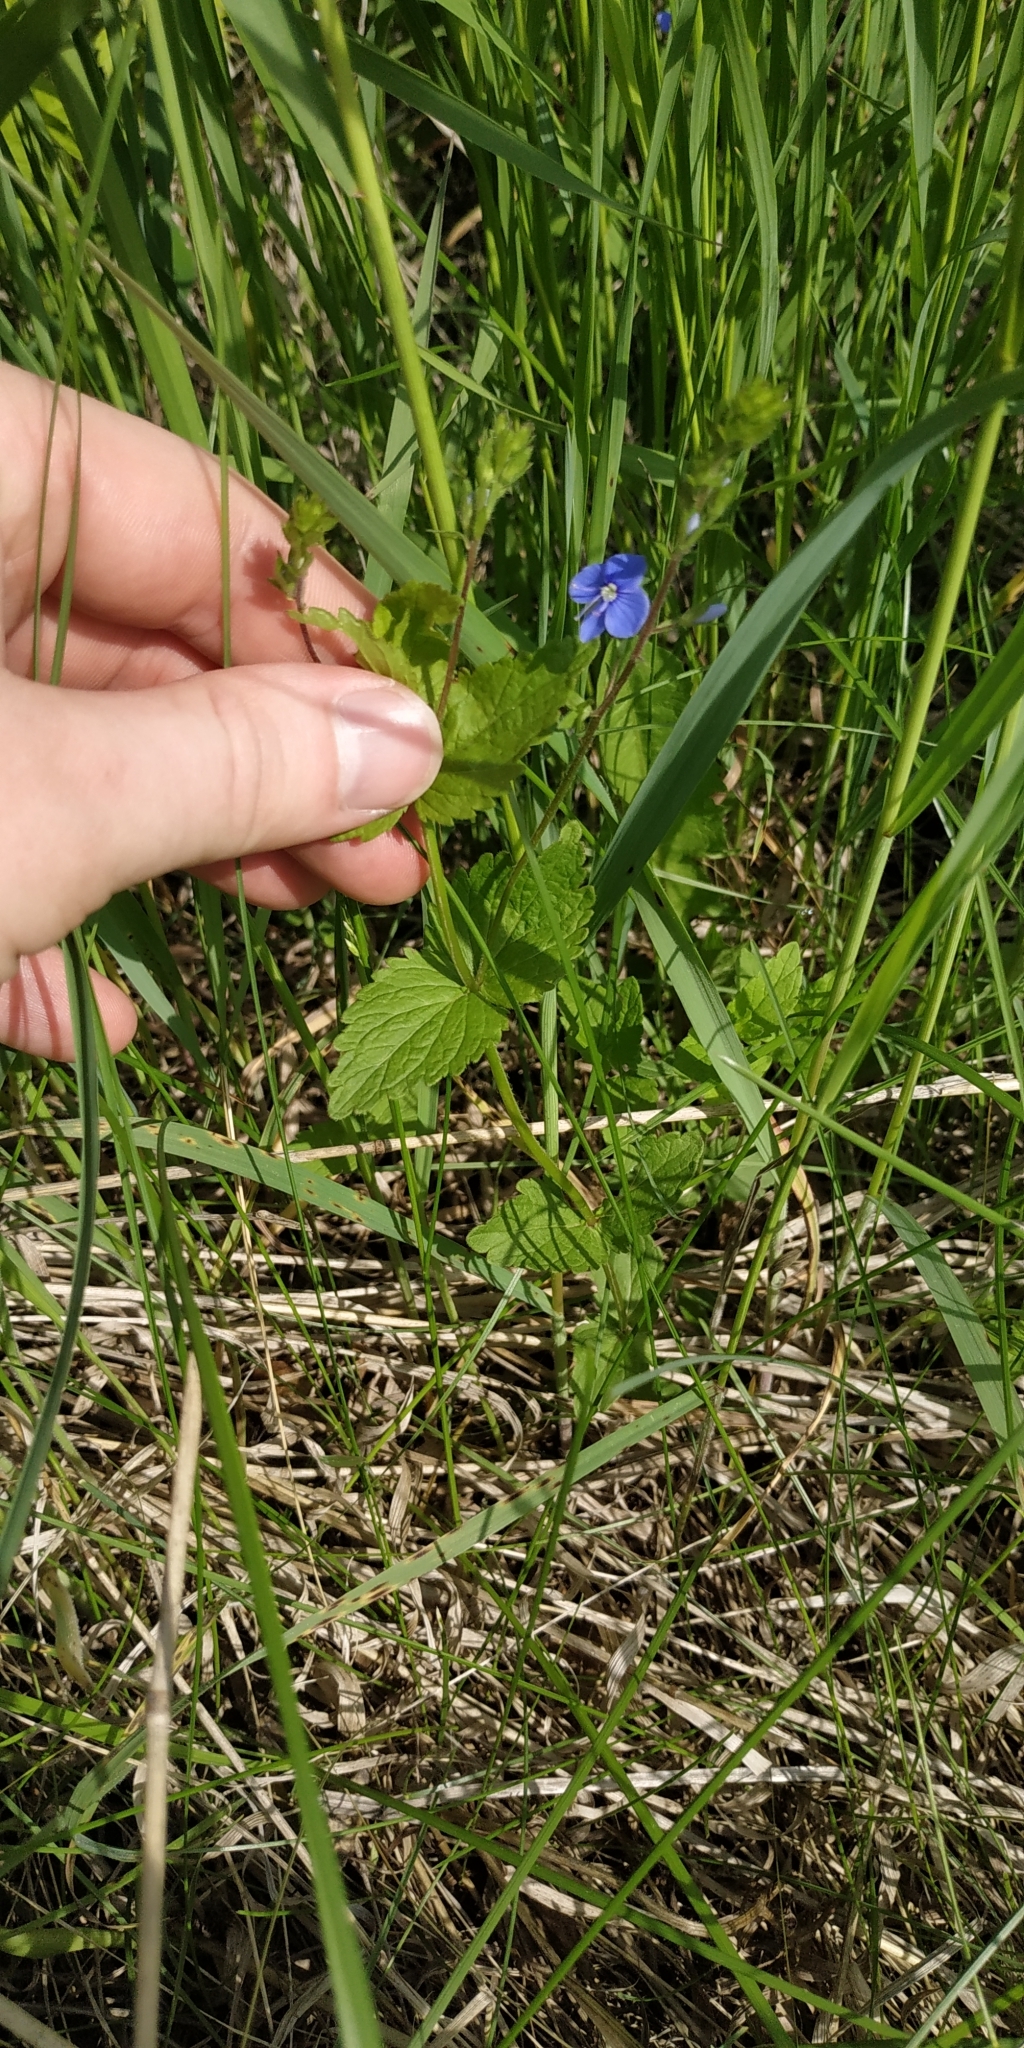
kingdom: Plantae
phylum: Tracheophyta
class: Magnoliopsida
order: Lamiales
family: Plantaginaceae
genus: Veronica
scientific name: Veronica chamaedrys
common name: Germander speedwell
